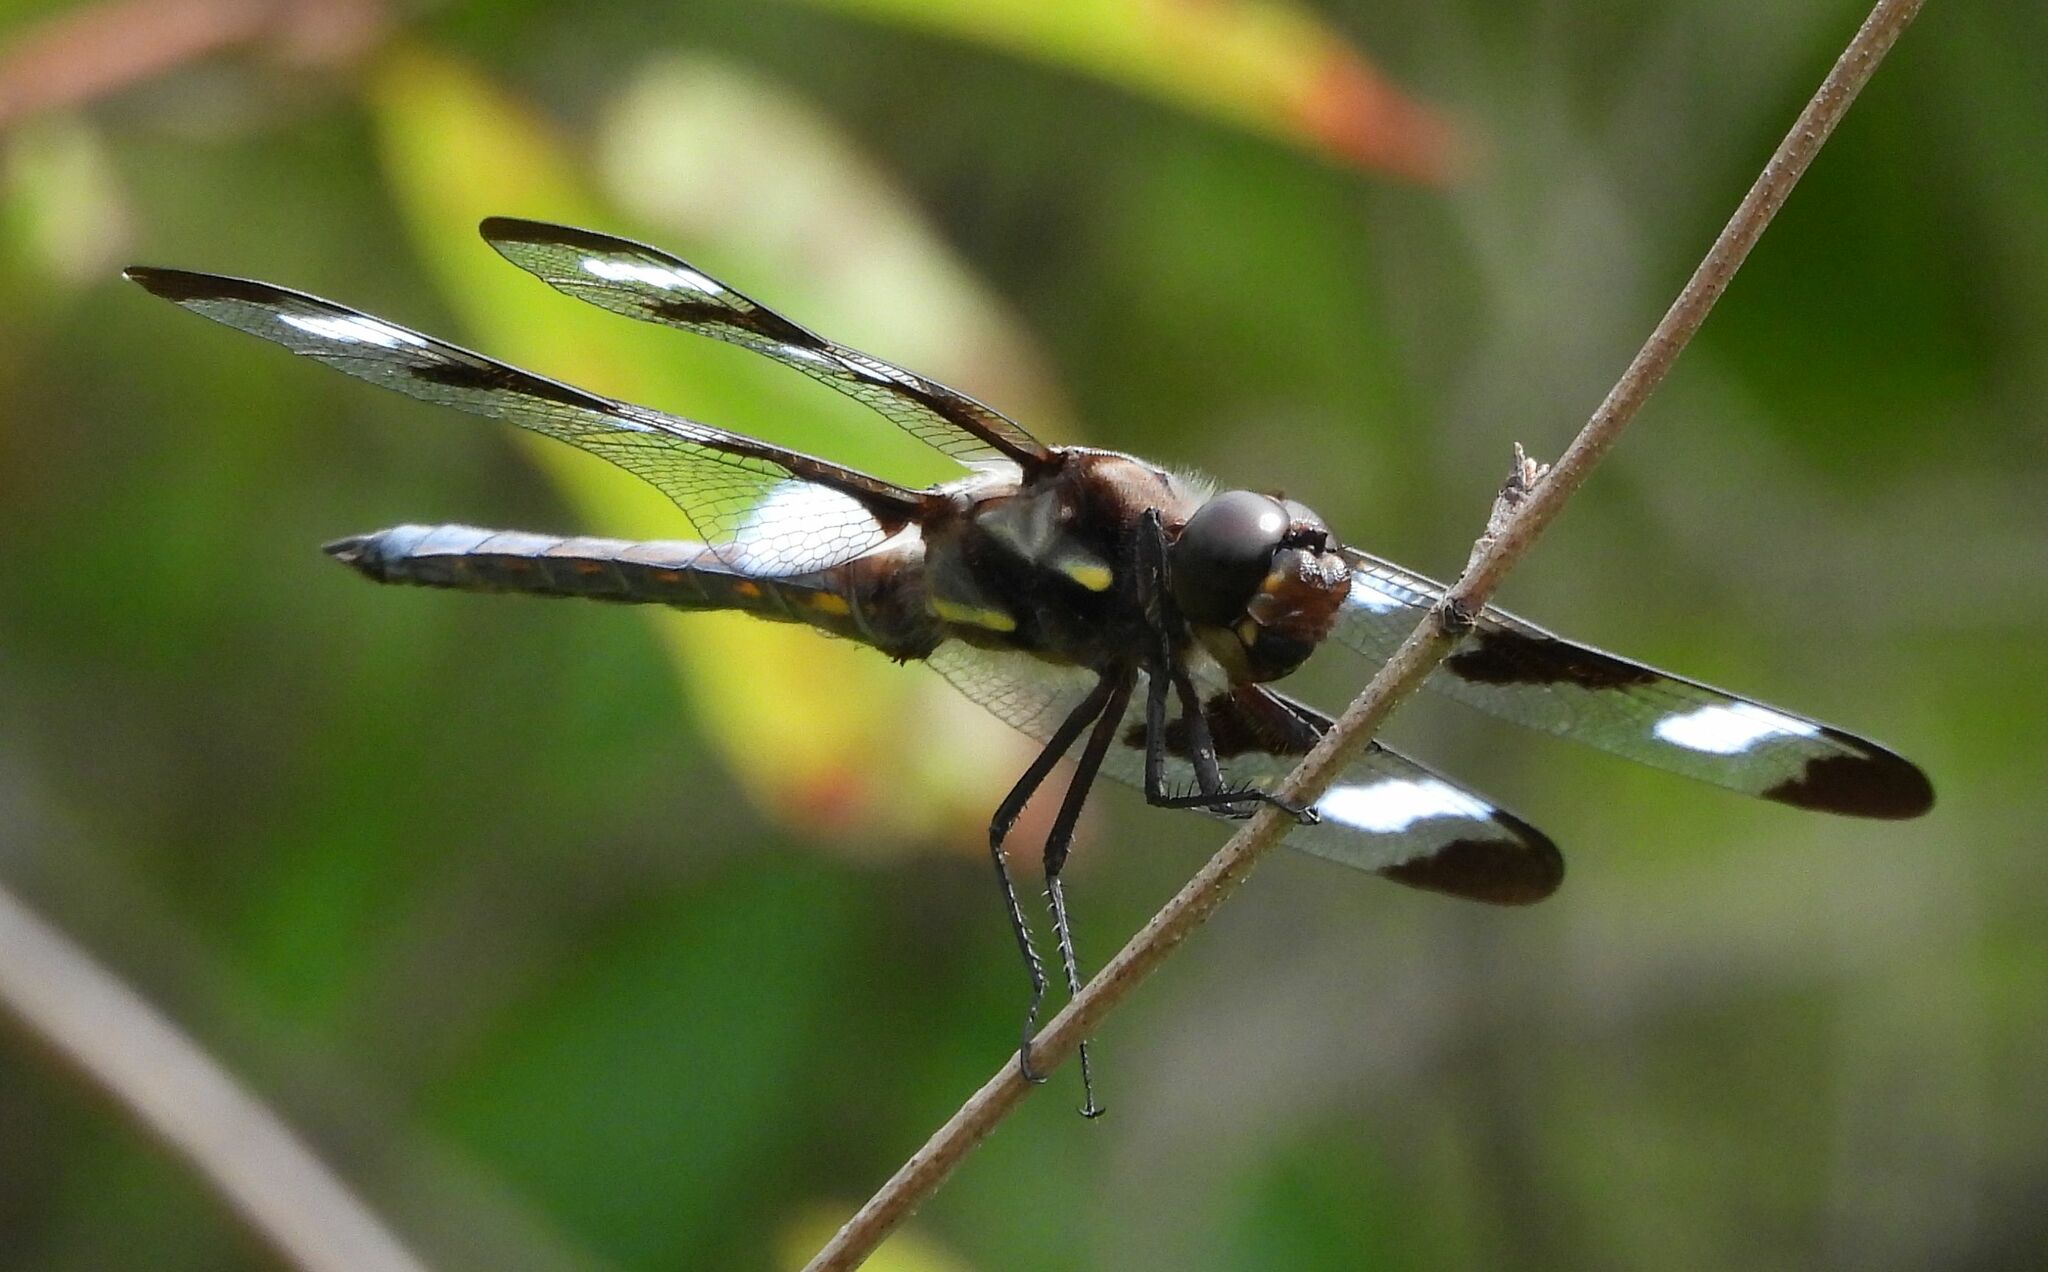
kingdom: Animalia
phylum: Arthropoda
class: Insecta
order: Odonata
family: Libellulidae
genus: Libellula
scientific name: Libellula pulchella
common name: Twelve-spotted skimmer
